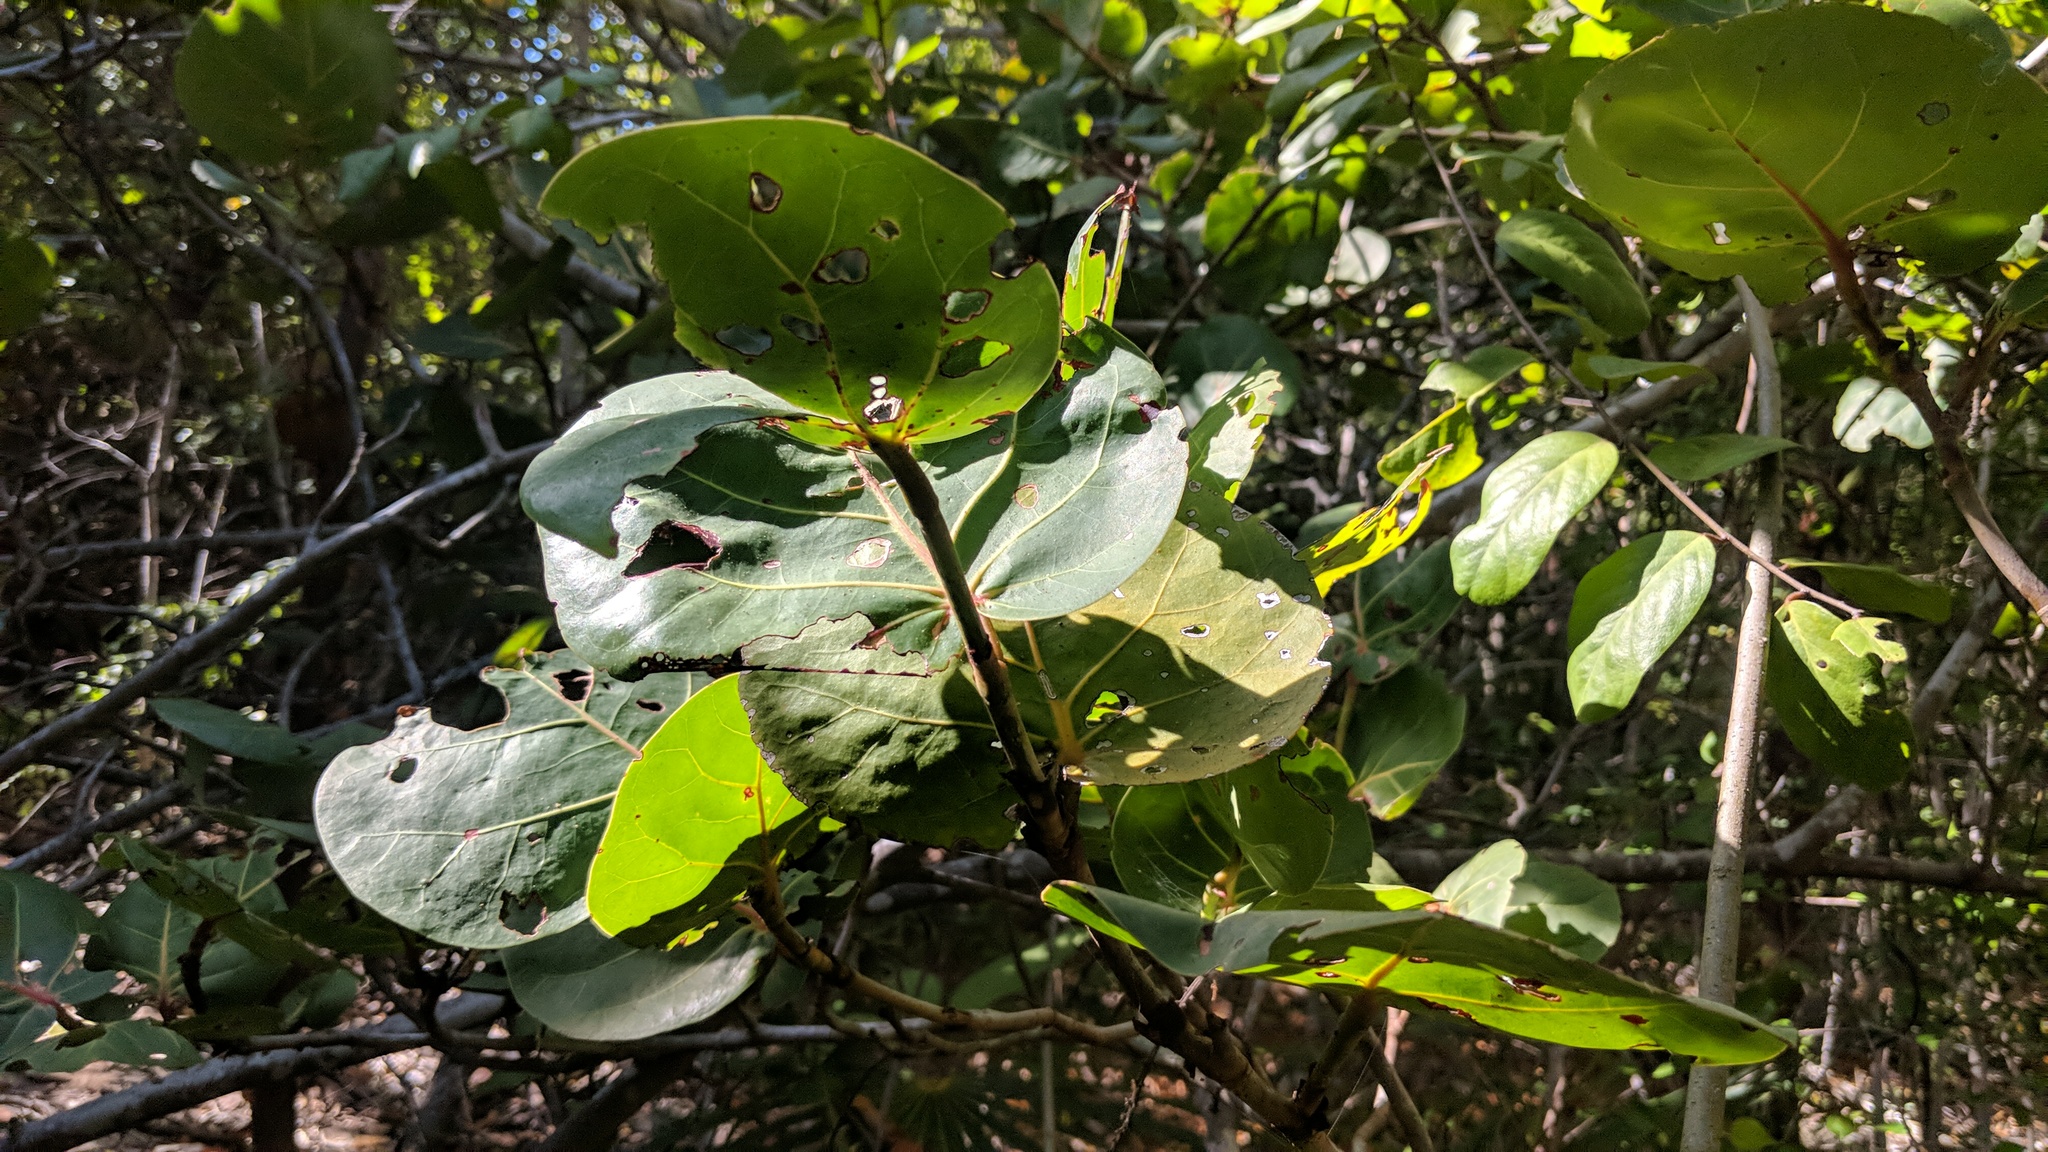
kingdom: Plantae
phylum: Tracheophyta
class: Magnoliopsida
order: Caryophyllales
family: Polygonaceae
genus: Coccoloba
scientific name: Coccoloba uvifera
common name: Seagrape
